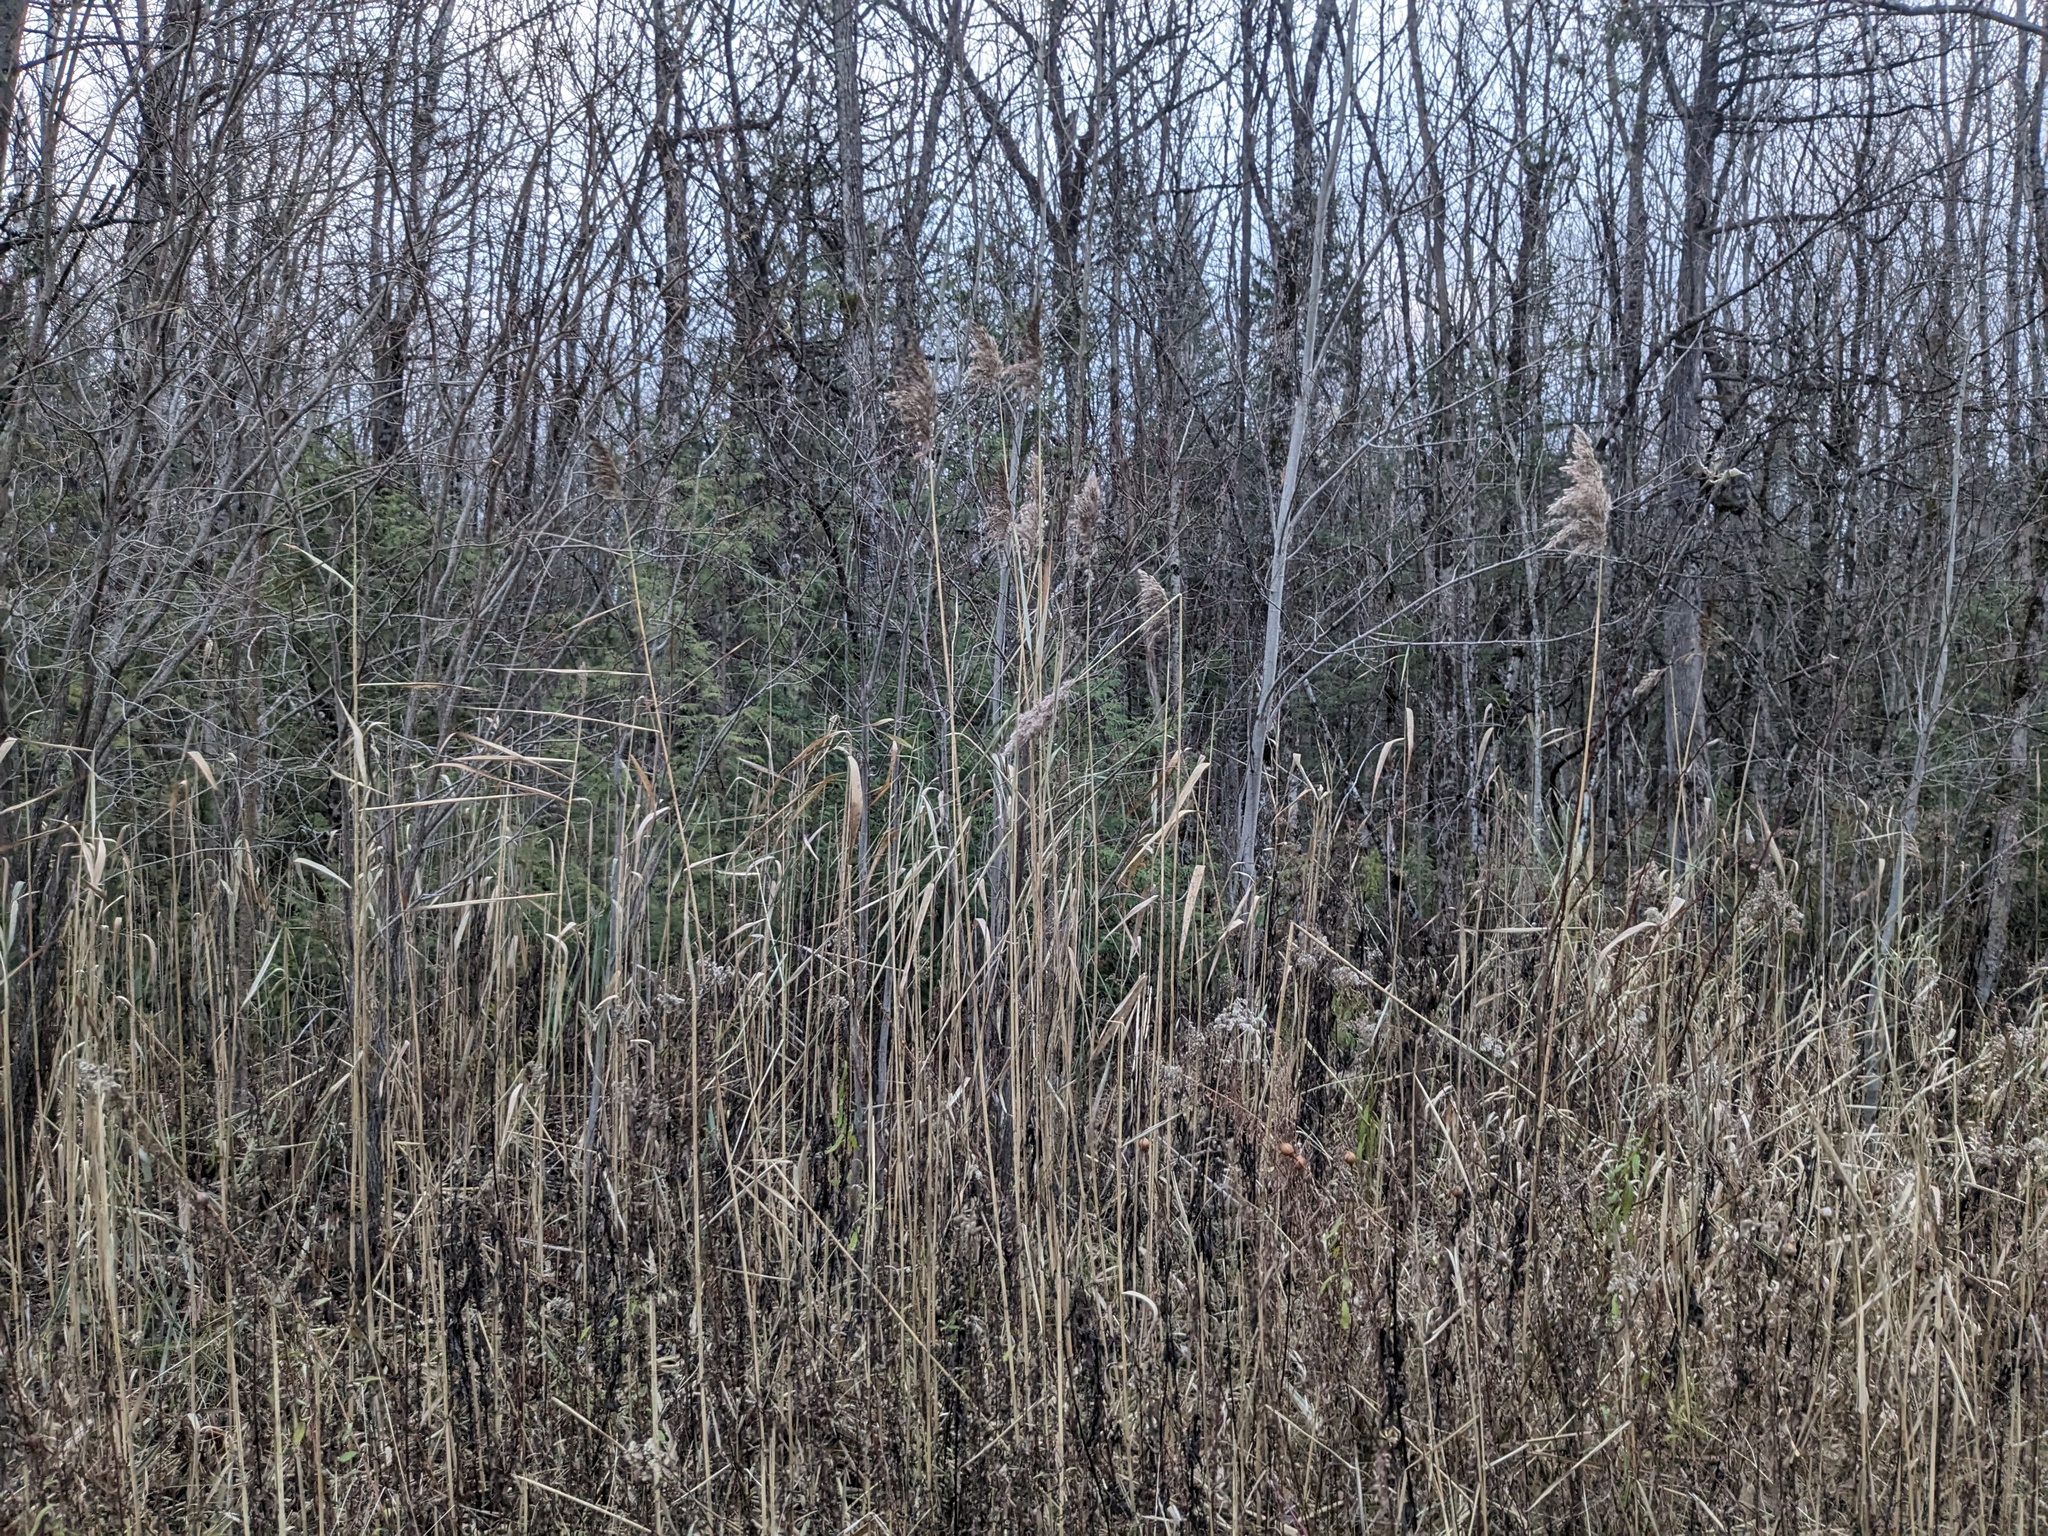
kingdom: Plantae
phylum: Tracheophyta
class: Liliopsida
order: Poales
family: Poaceae
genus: Phragmites
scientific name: Phragmites australis
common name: Common reed
